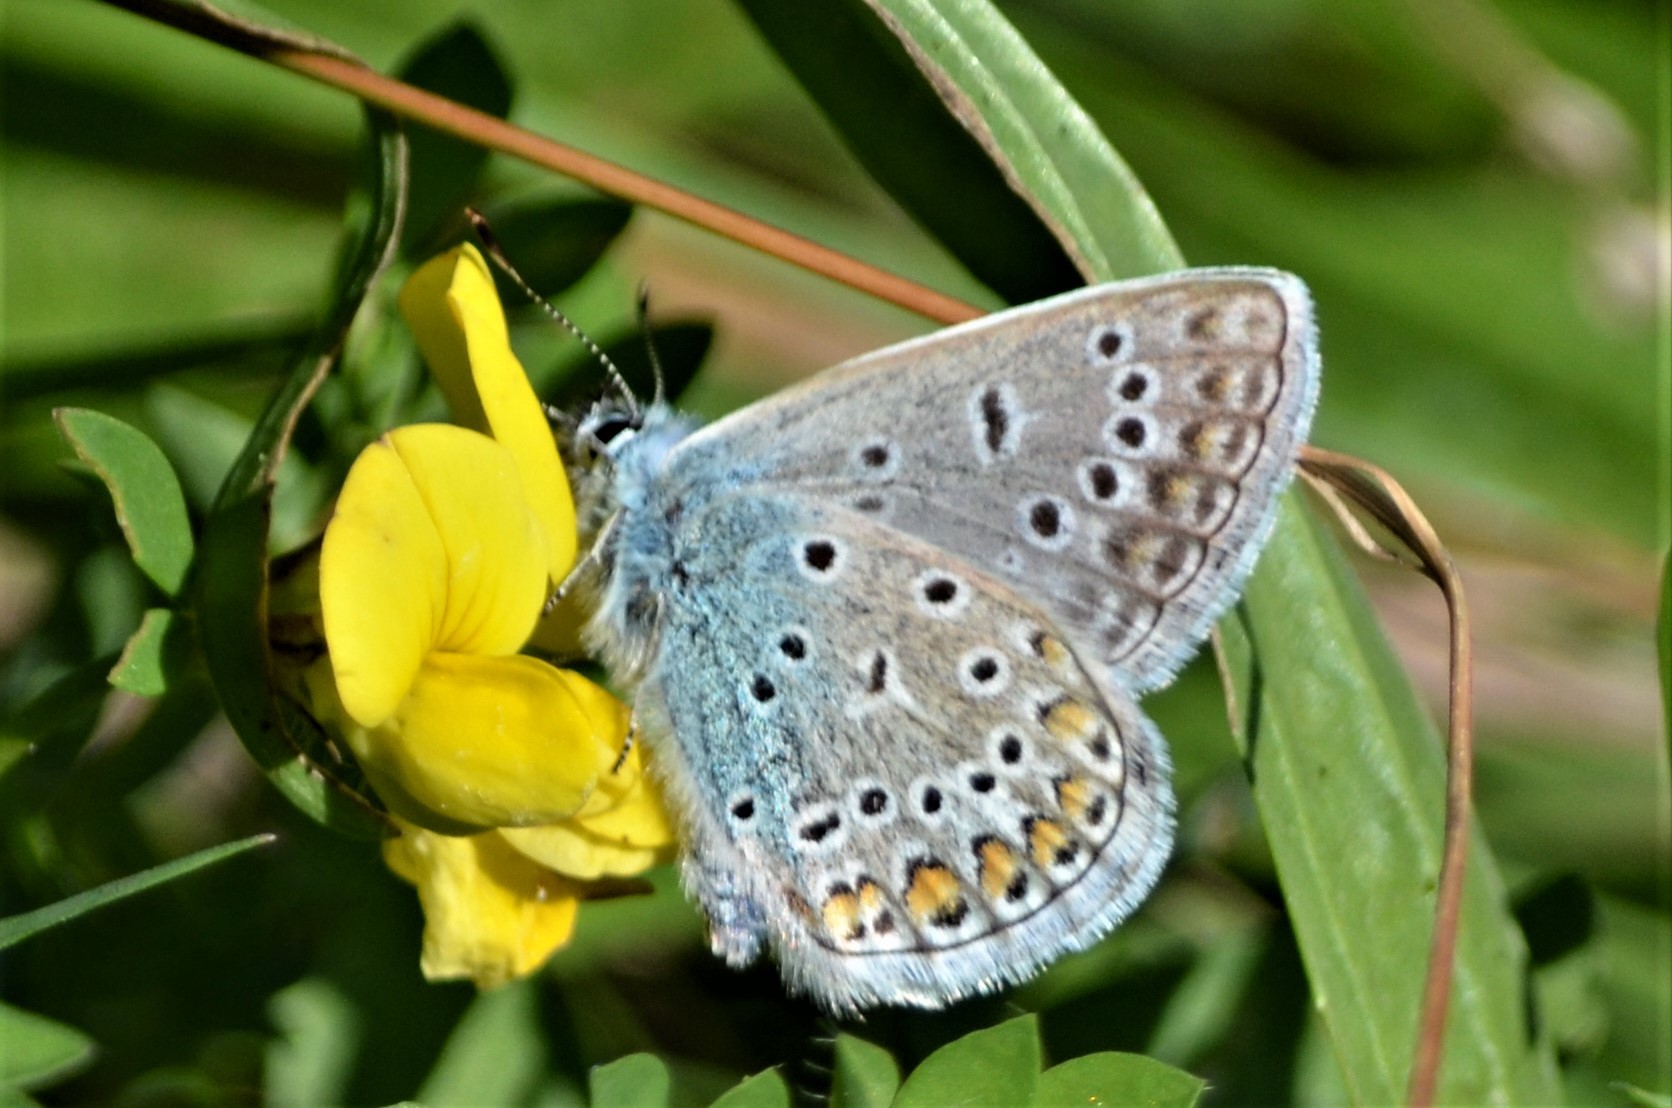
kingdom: Animalia
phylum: Arthropoda
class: Insecta
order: Lepidoptera
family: Lycaenidae
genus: Polyommatus
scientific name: Polyommatus icarus
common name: Common blue
